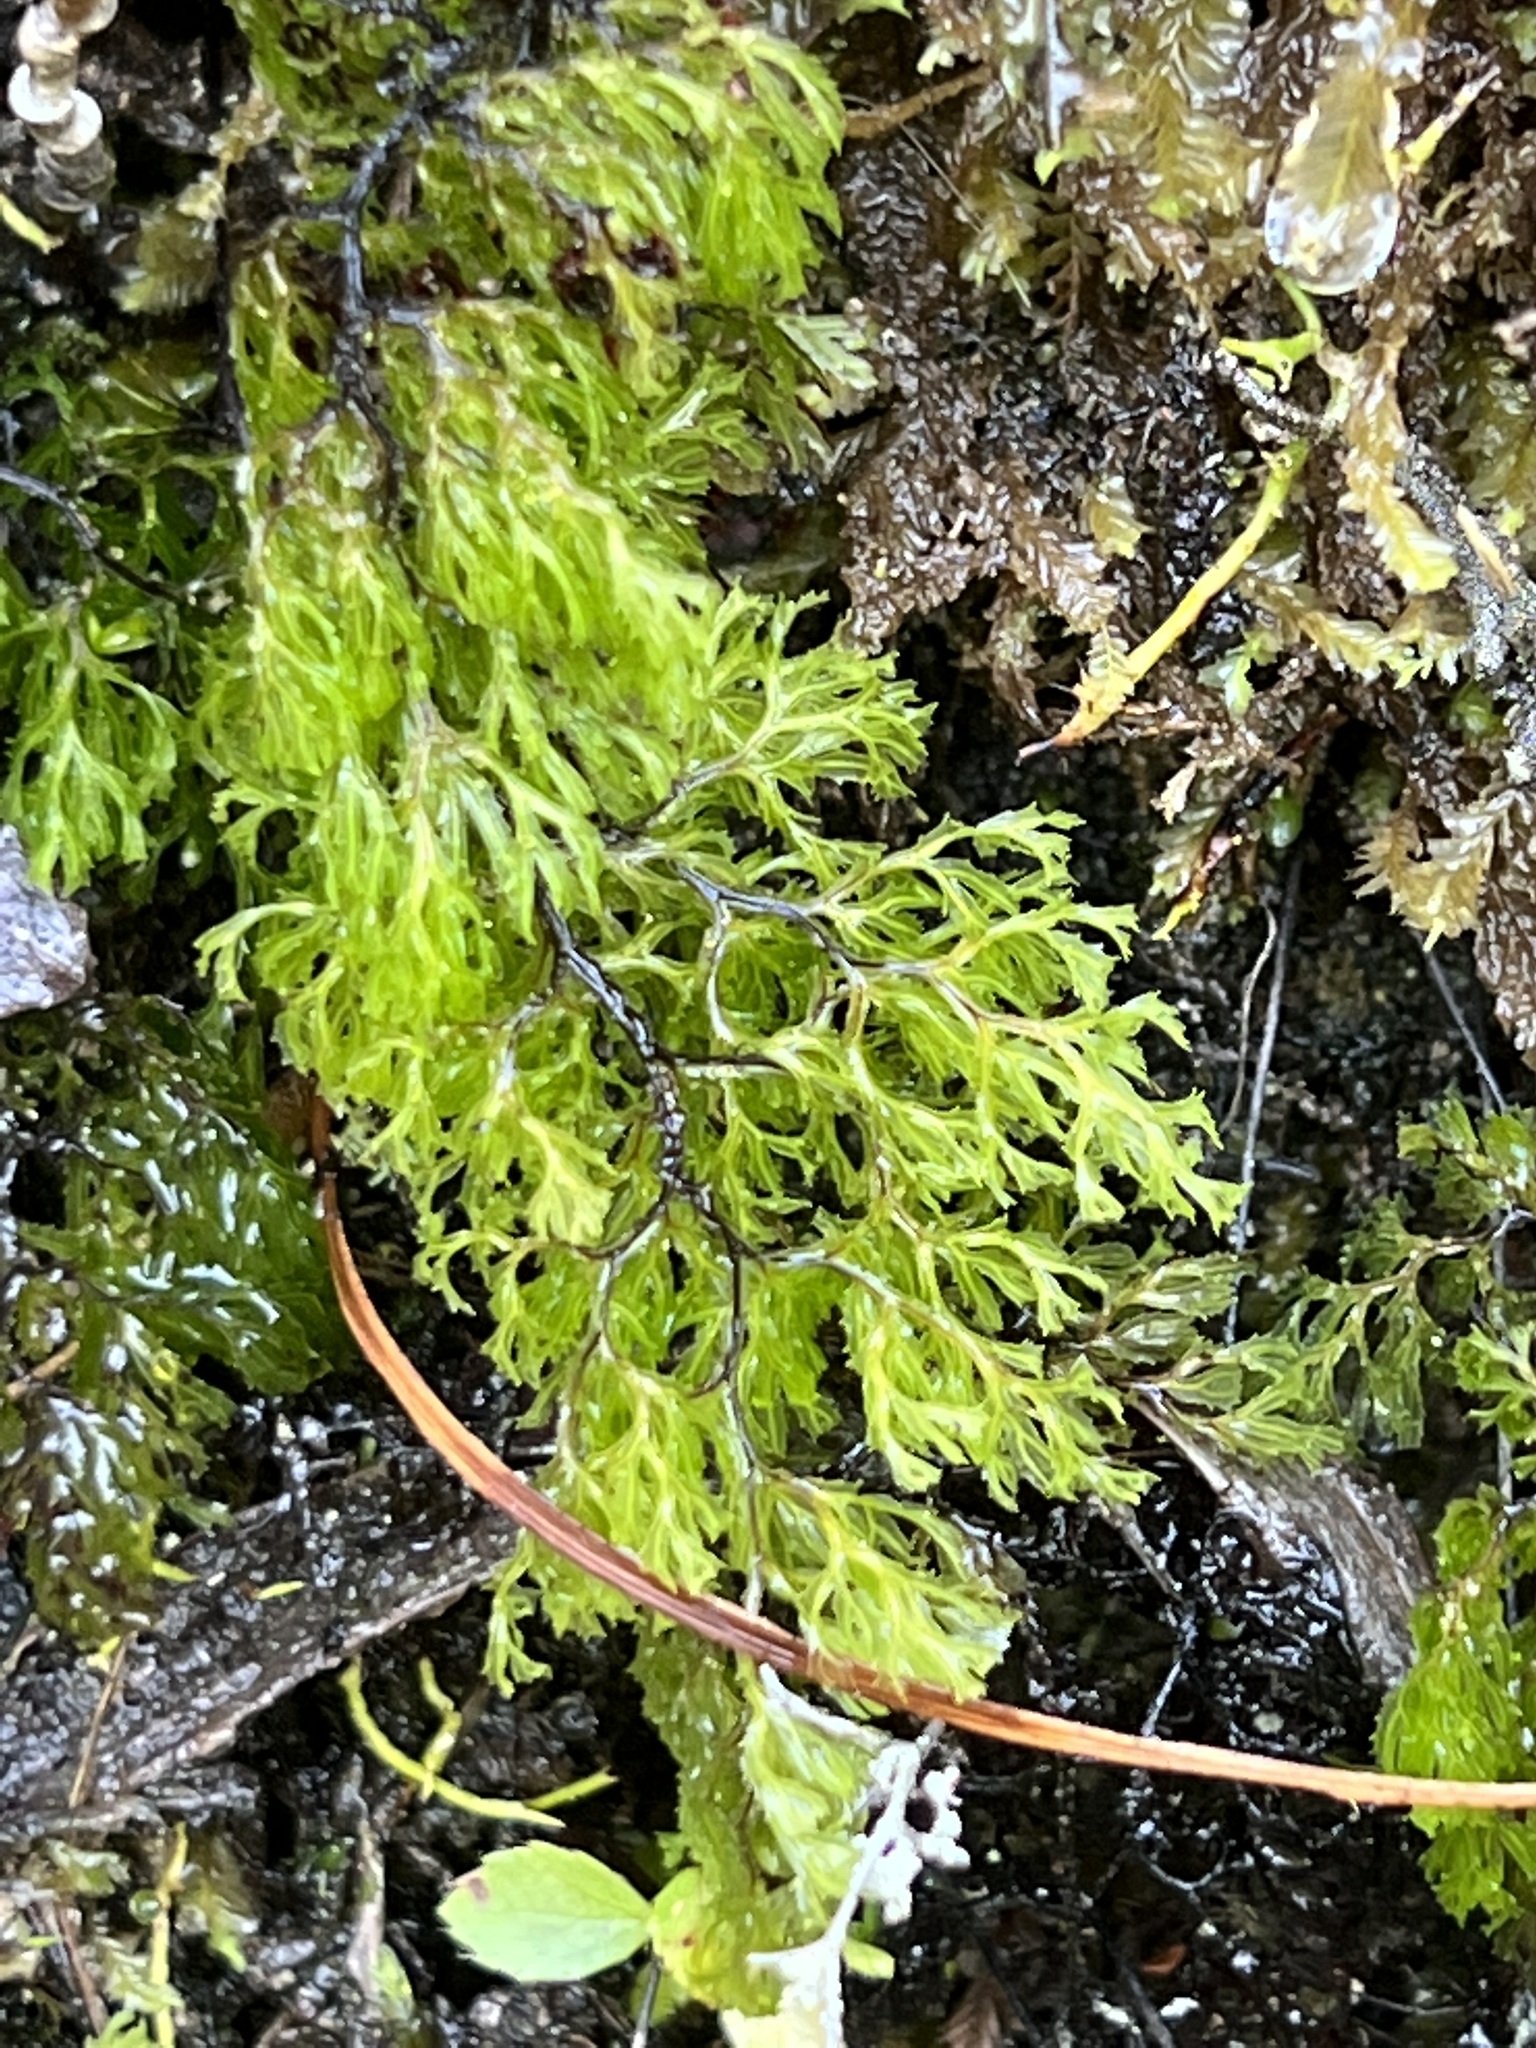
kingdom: Plantae
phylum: Tracheophyta
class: Polypodiopsida
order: Hymenophyllales
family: Hymenophyllaceae
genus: Hymenophyllum
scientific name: Hymenophyllum multifidum
